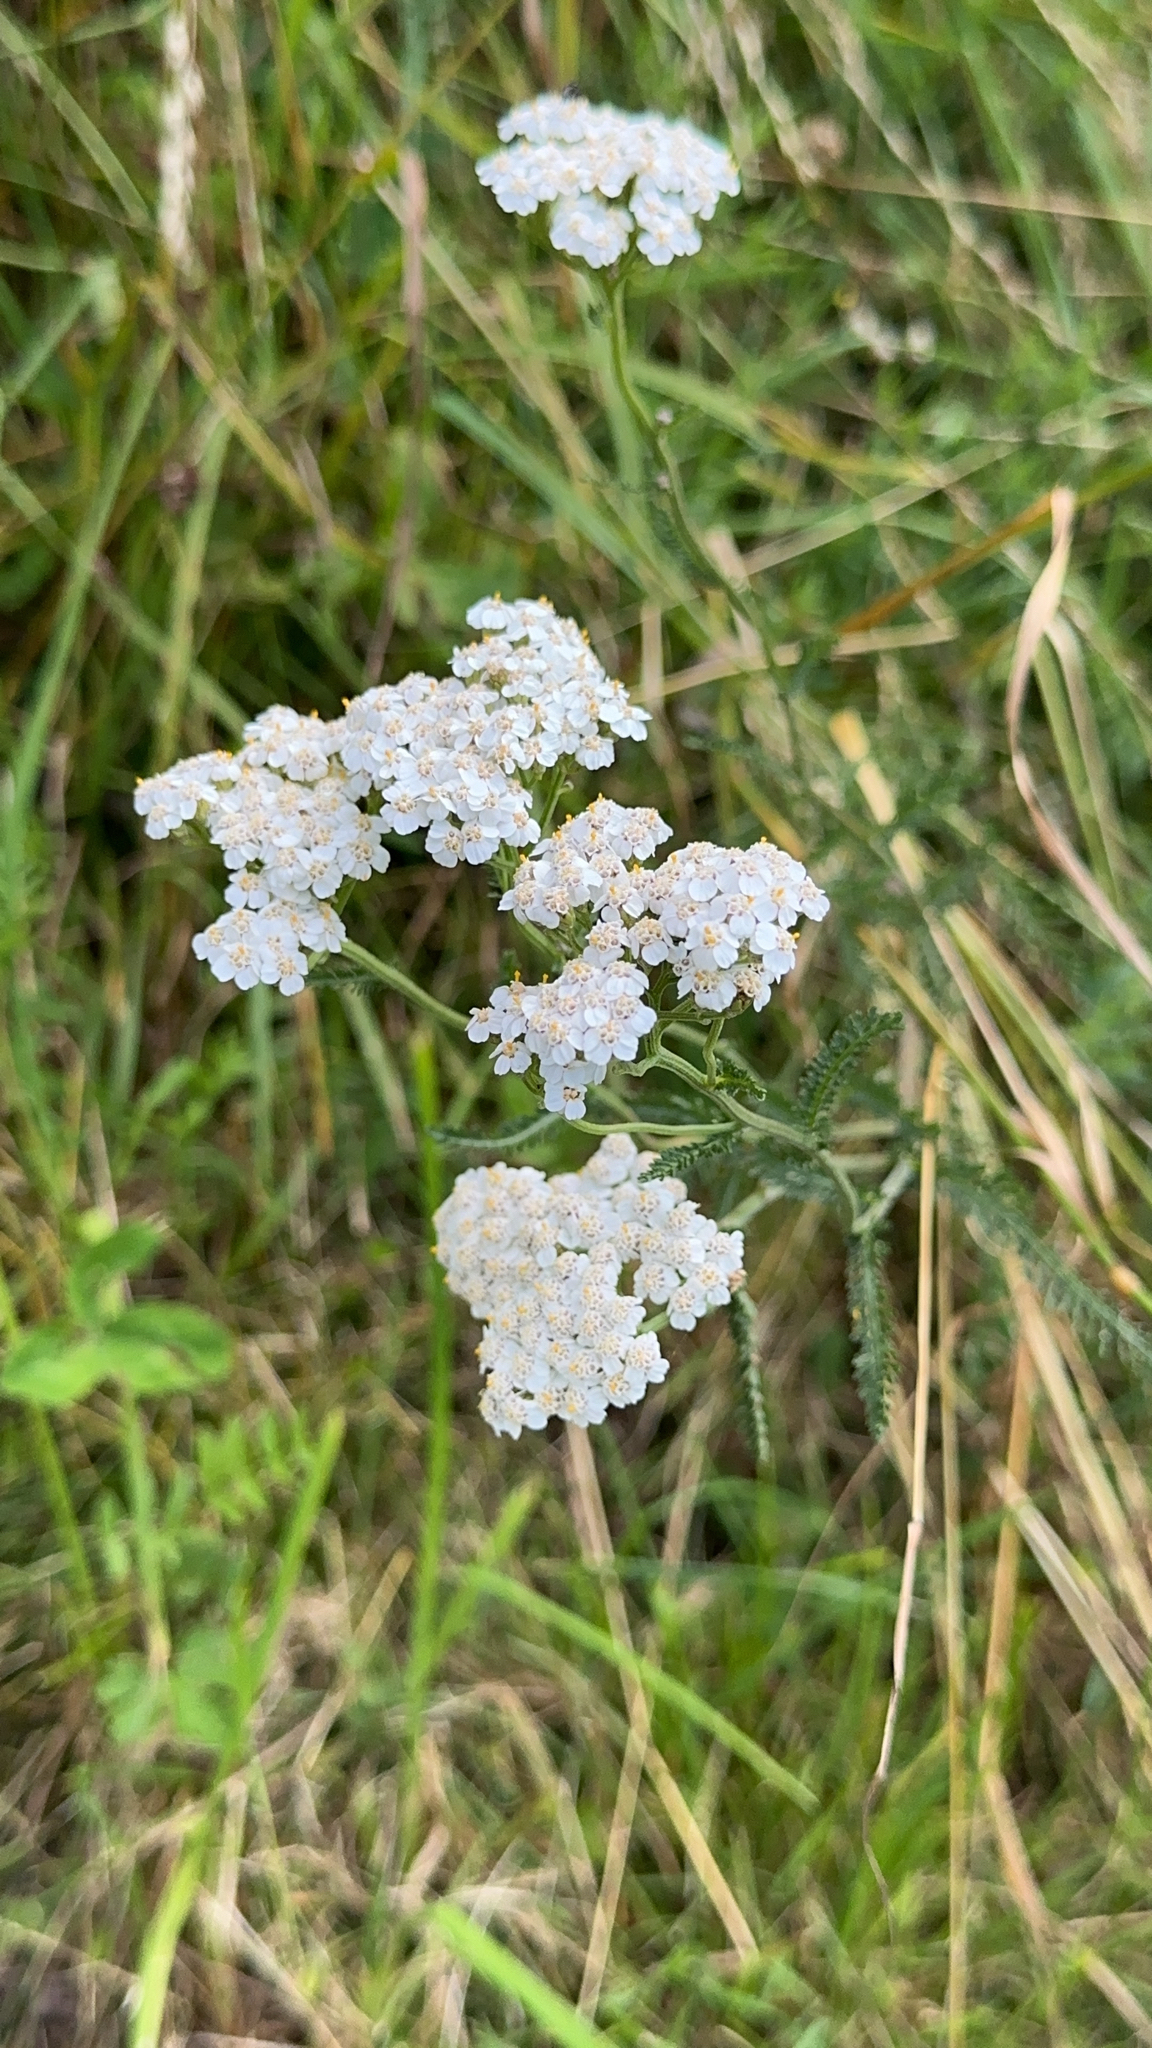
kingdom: Plantae
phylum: Tracheophyta
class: Magnoliopsida
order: Asterales
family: Asteraceae
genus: Achillea
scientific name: Achillea millefolium
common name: Yarrow
